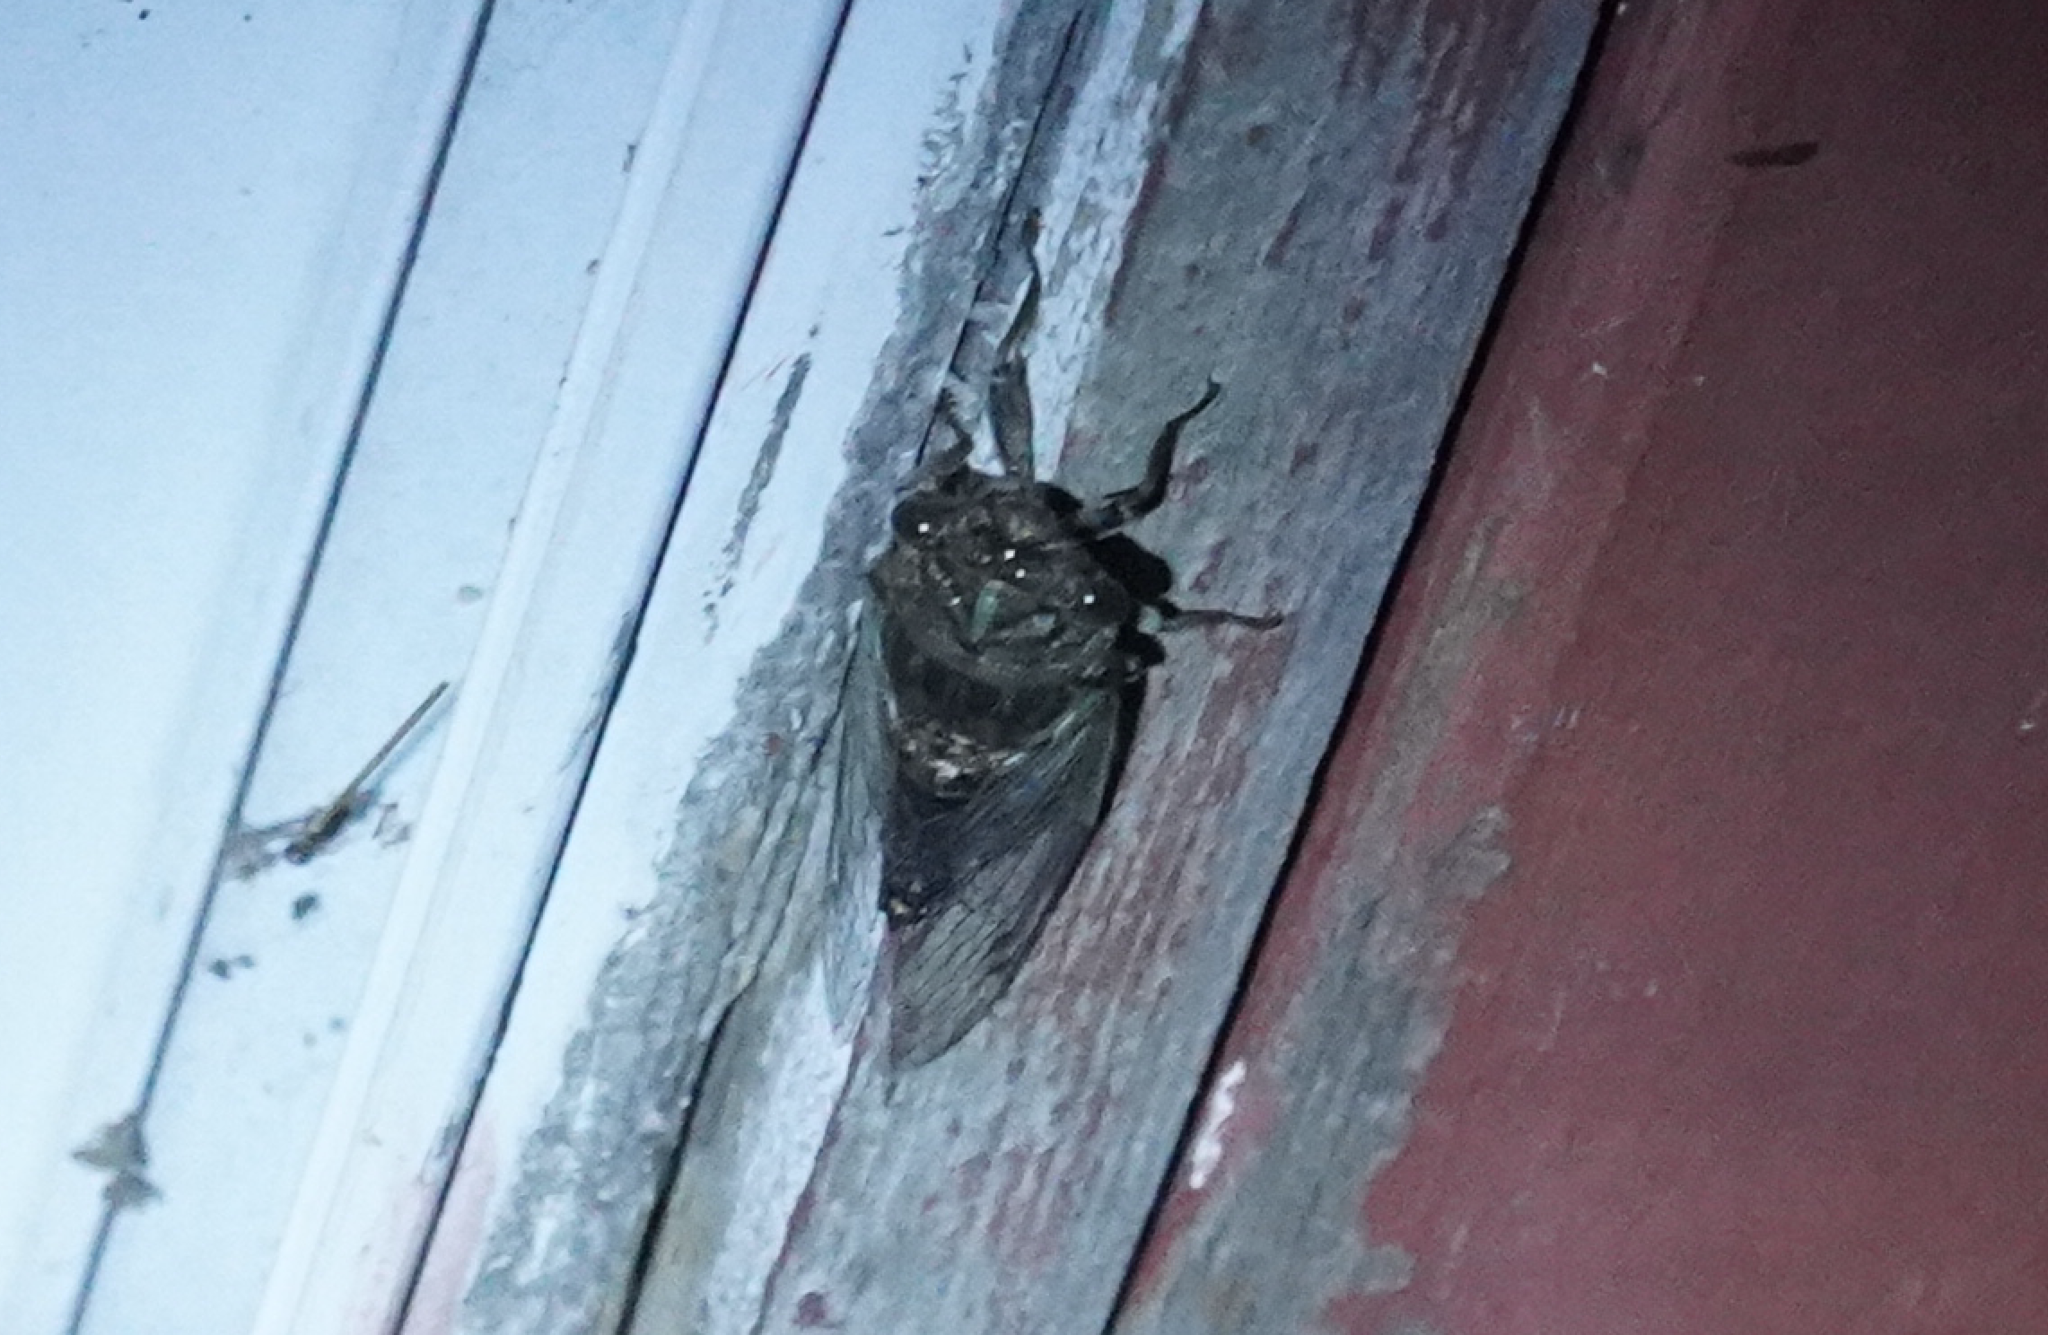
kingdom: Animalia
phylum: Arthropoda
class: Insecta
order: Hemiptera
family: Cicadidae
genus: Neotibicen
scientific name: Neotibicen canicularis
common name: God-day cicada
